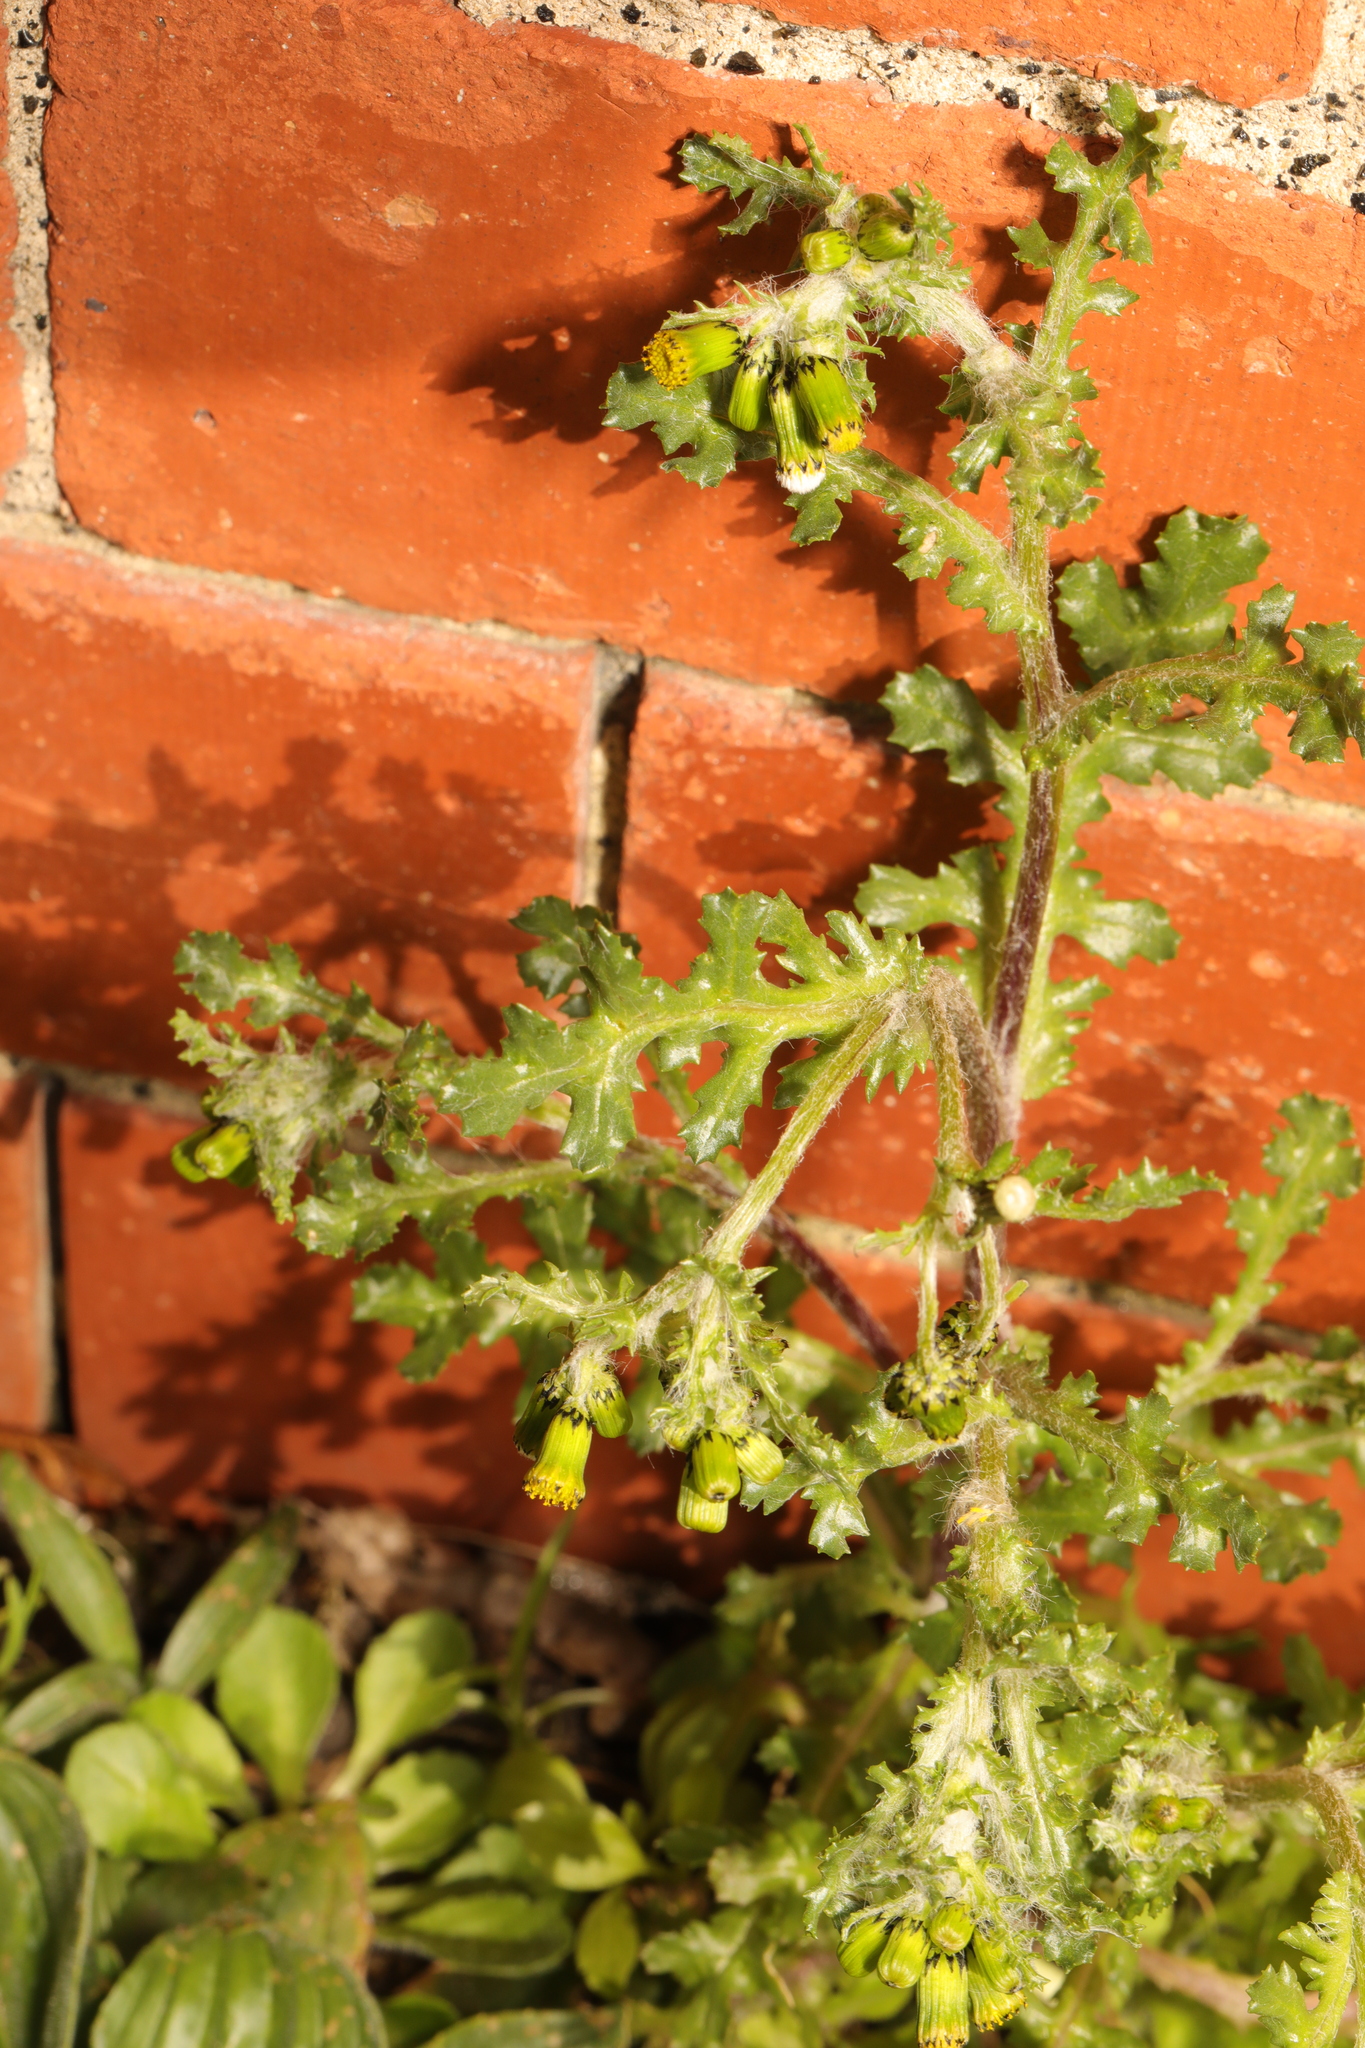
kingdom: Plantae
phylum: Tracheophyta
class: Magnoliopsida
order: Asterales
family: Asteraceae
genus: Senecio
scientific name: Senecio vulgaris
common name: Old-man-in-the-spring
